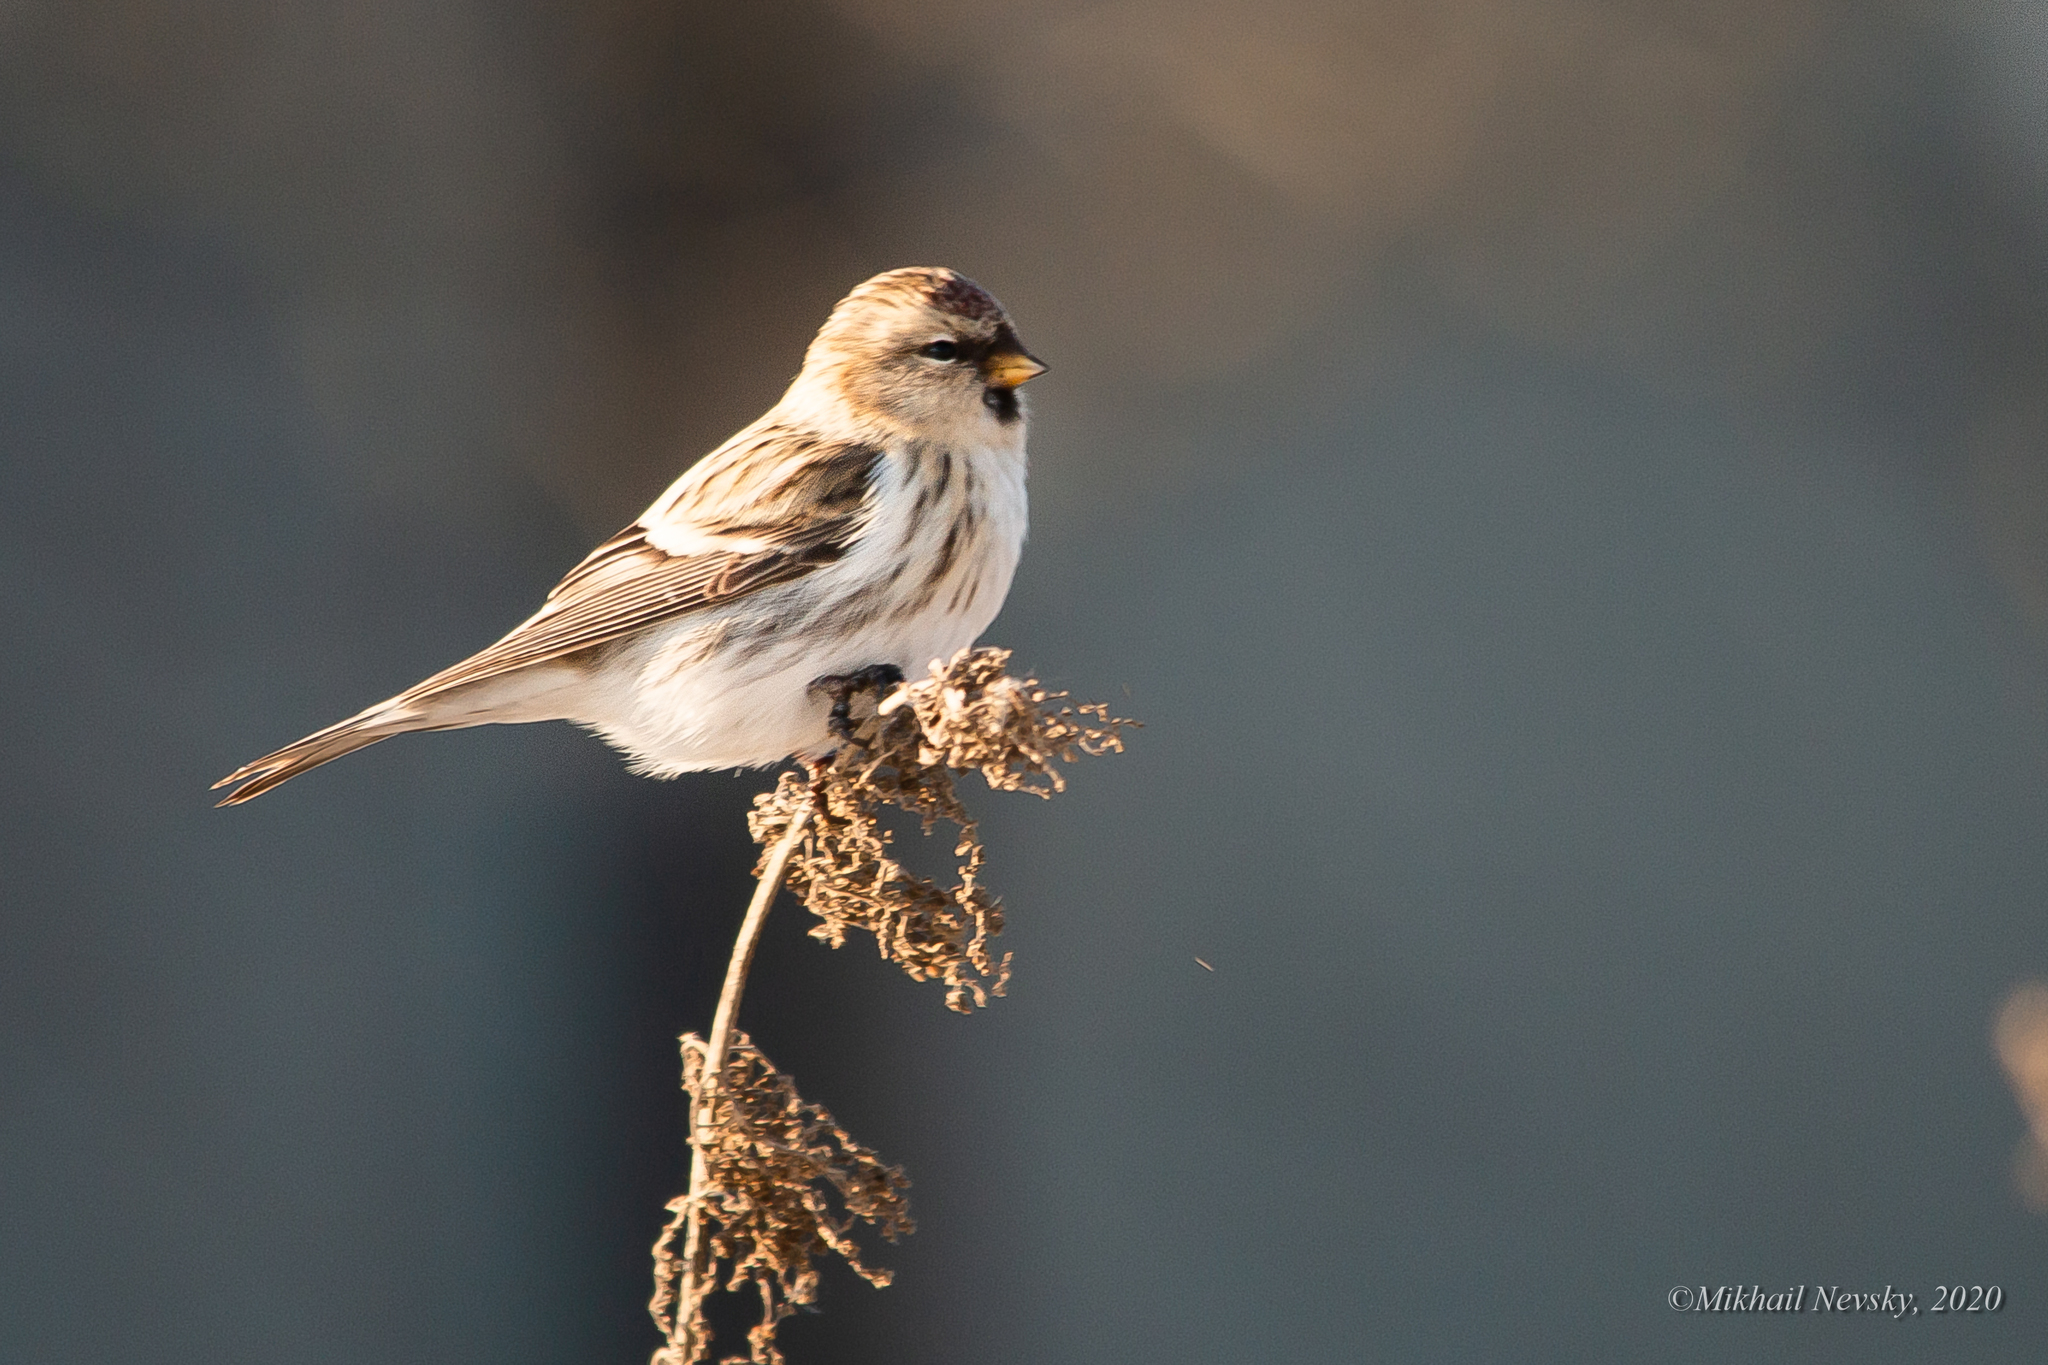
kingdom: Animalia
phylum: Chordata
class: Aves
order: Passeriformes
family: Fringillidae
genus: Acanthis
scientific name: Acanthis flammea
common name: Common redpoll
